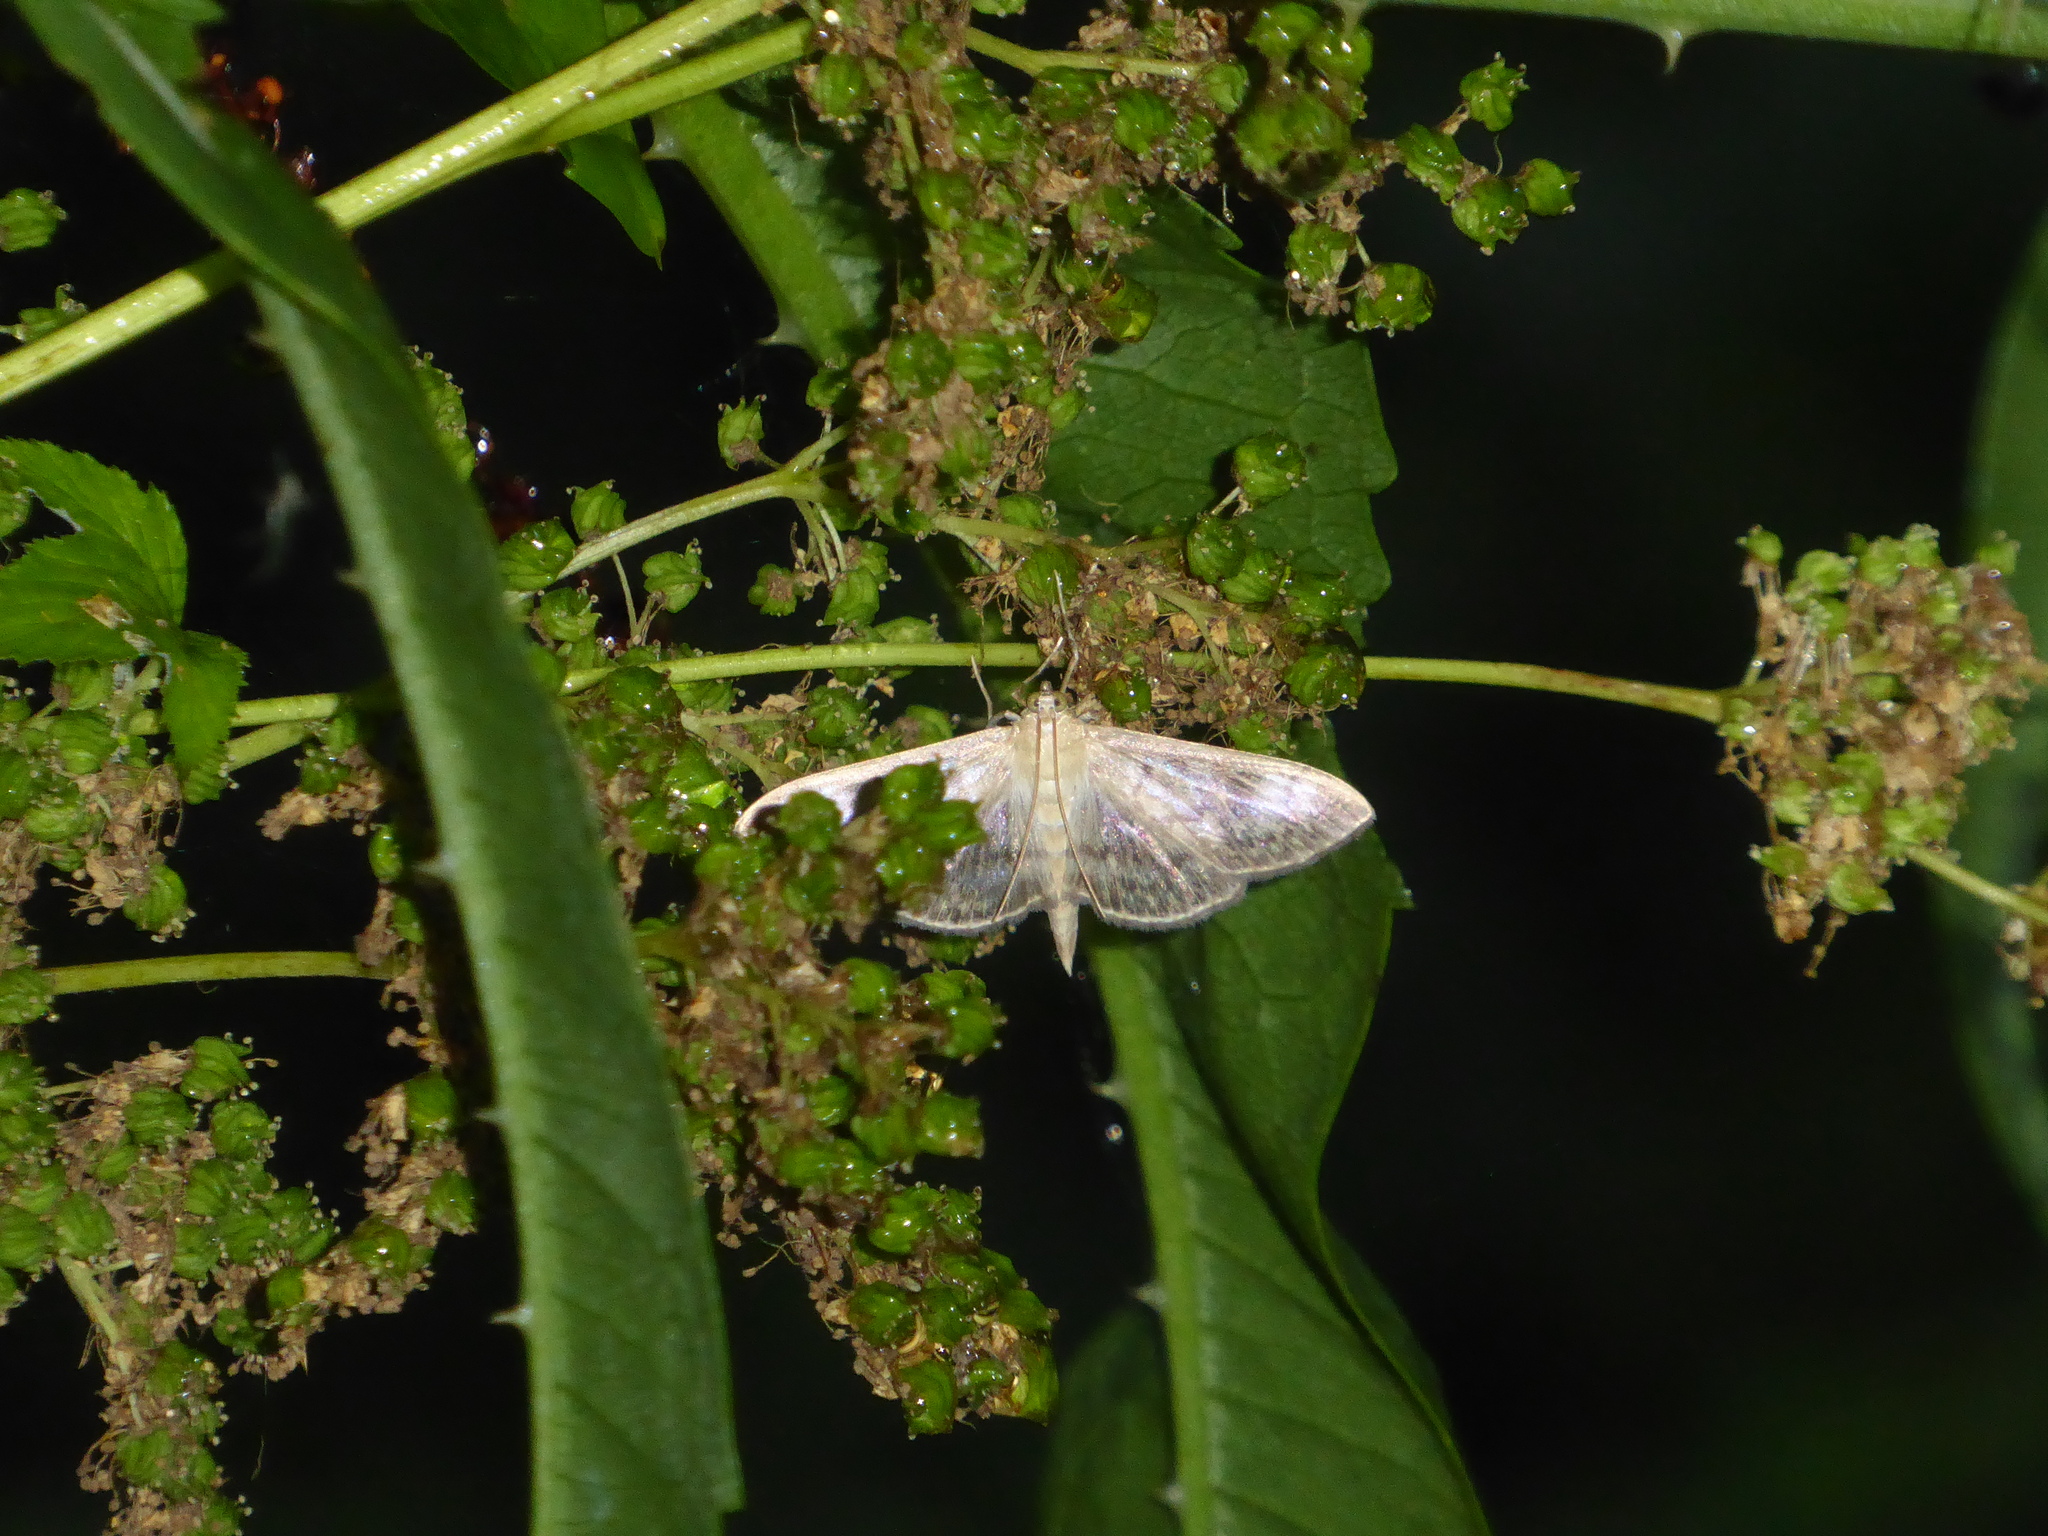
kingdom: Animalia
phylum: Arthropoda
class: Insecta
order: Lepidoptera
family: Crambidae
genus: Patania
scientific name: Patania ruralis
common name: Mother of pearl
